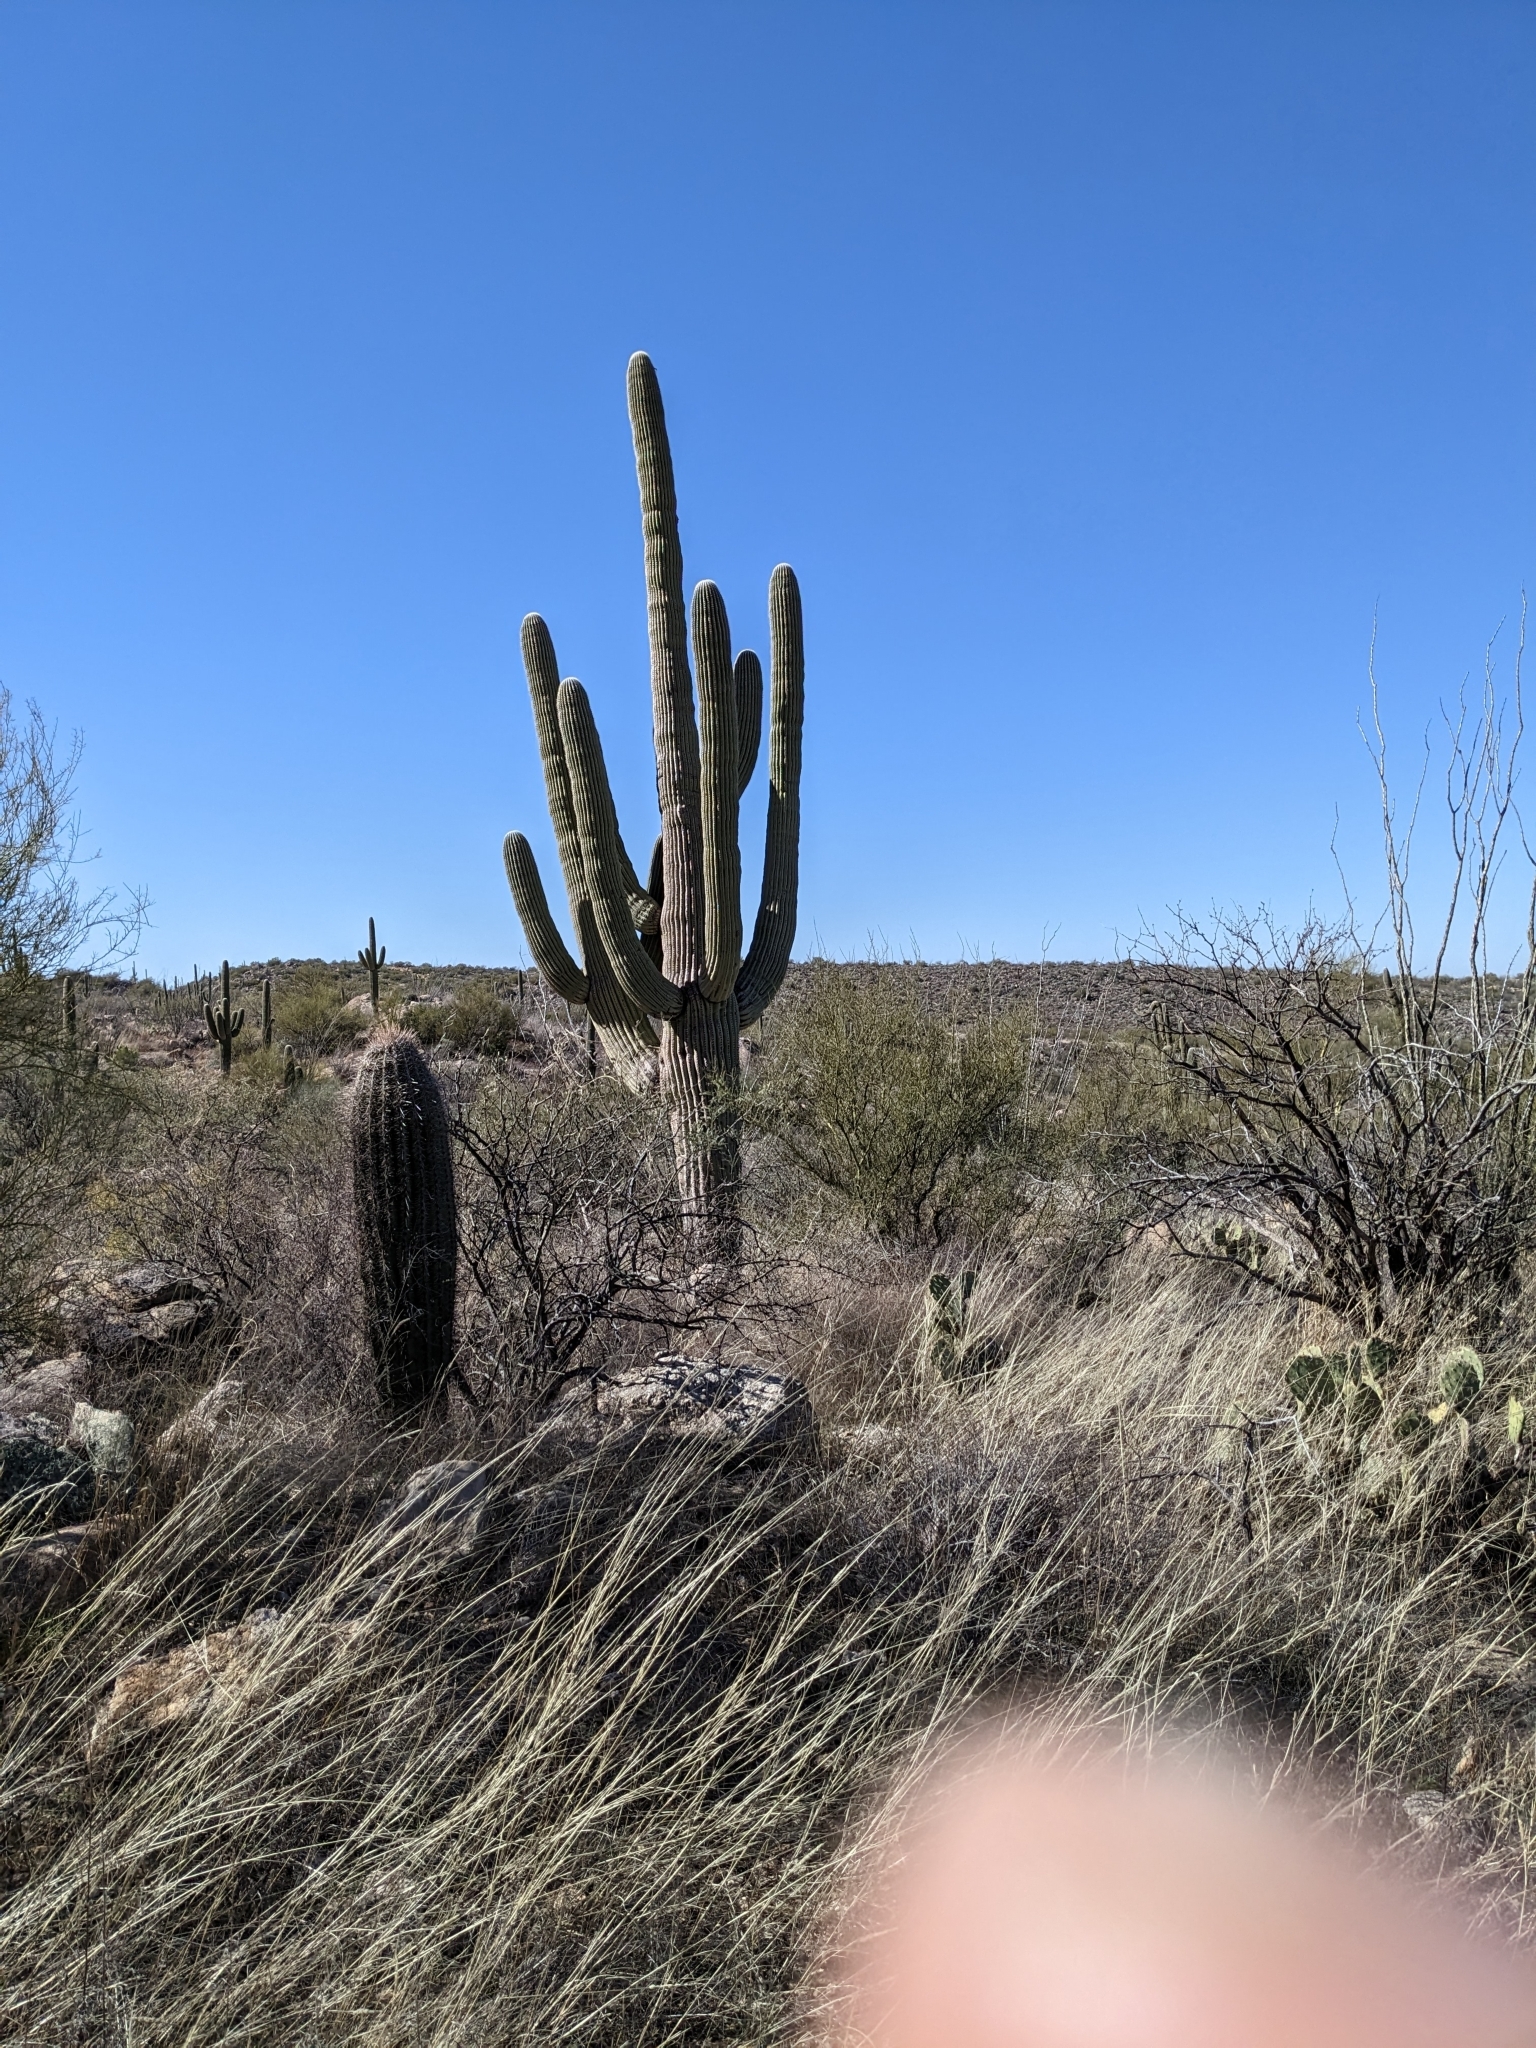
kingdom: Plantae
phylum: Tracheophyta
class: Magnoliopsida
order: Caryophyllales
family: Cactaceae
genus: Carnegiea
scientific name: Carnegiea gigantea
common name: Saguaro
